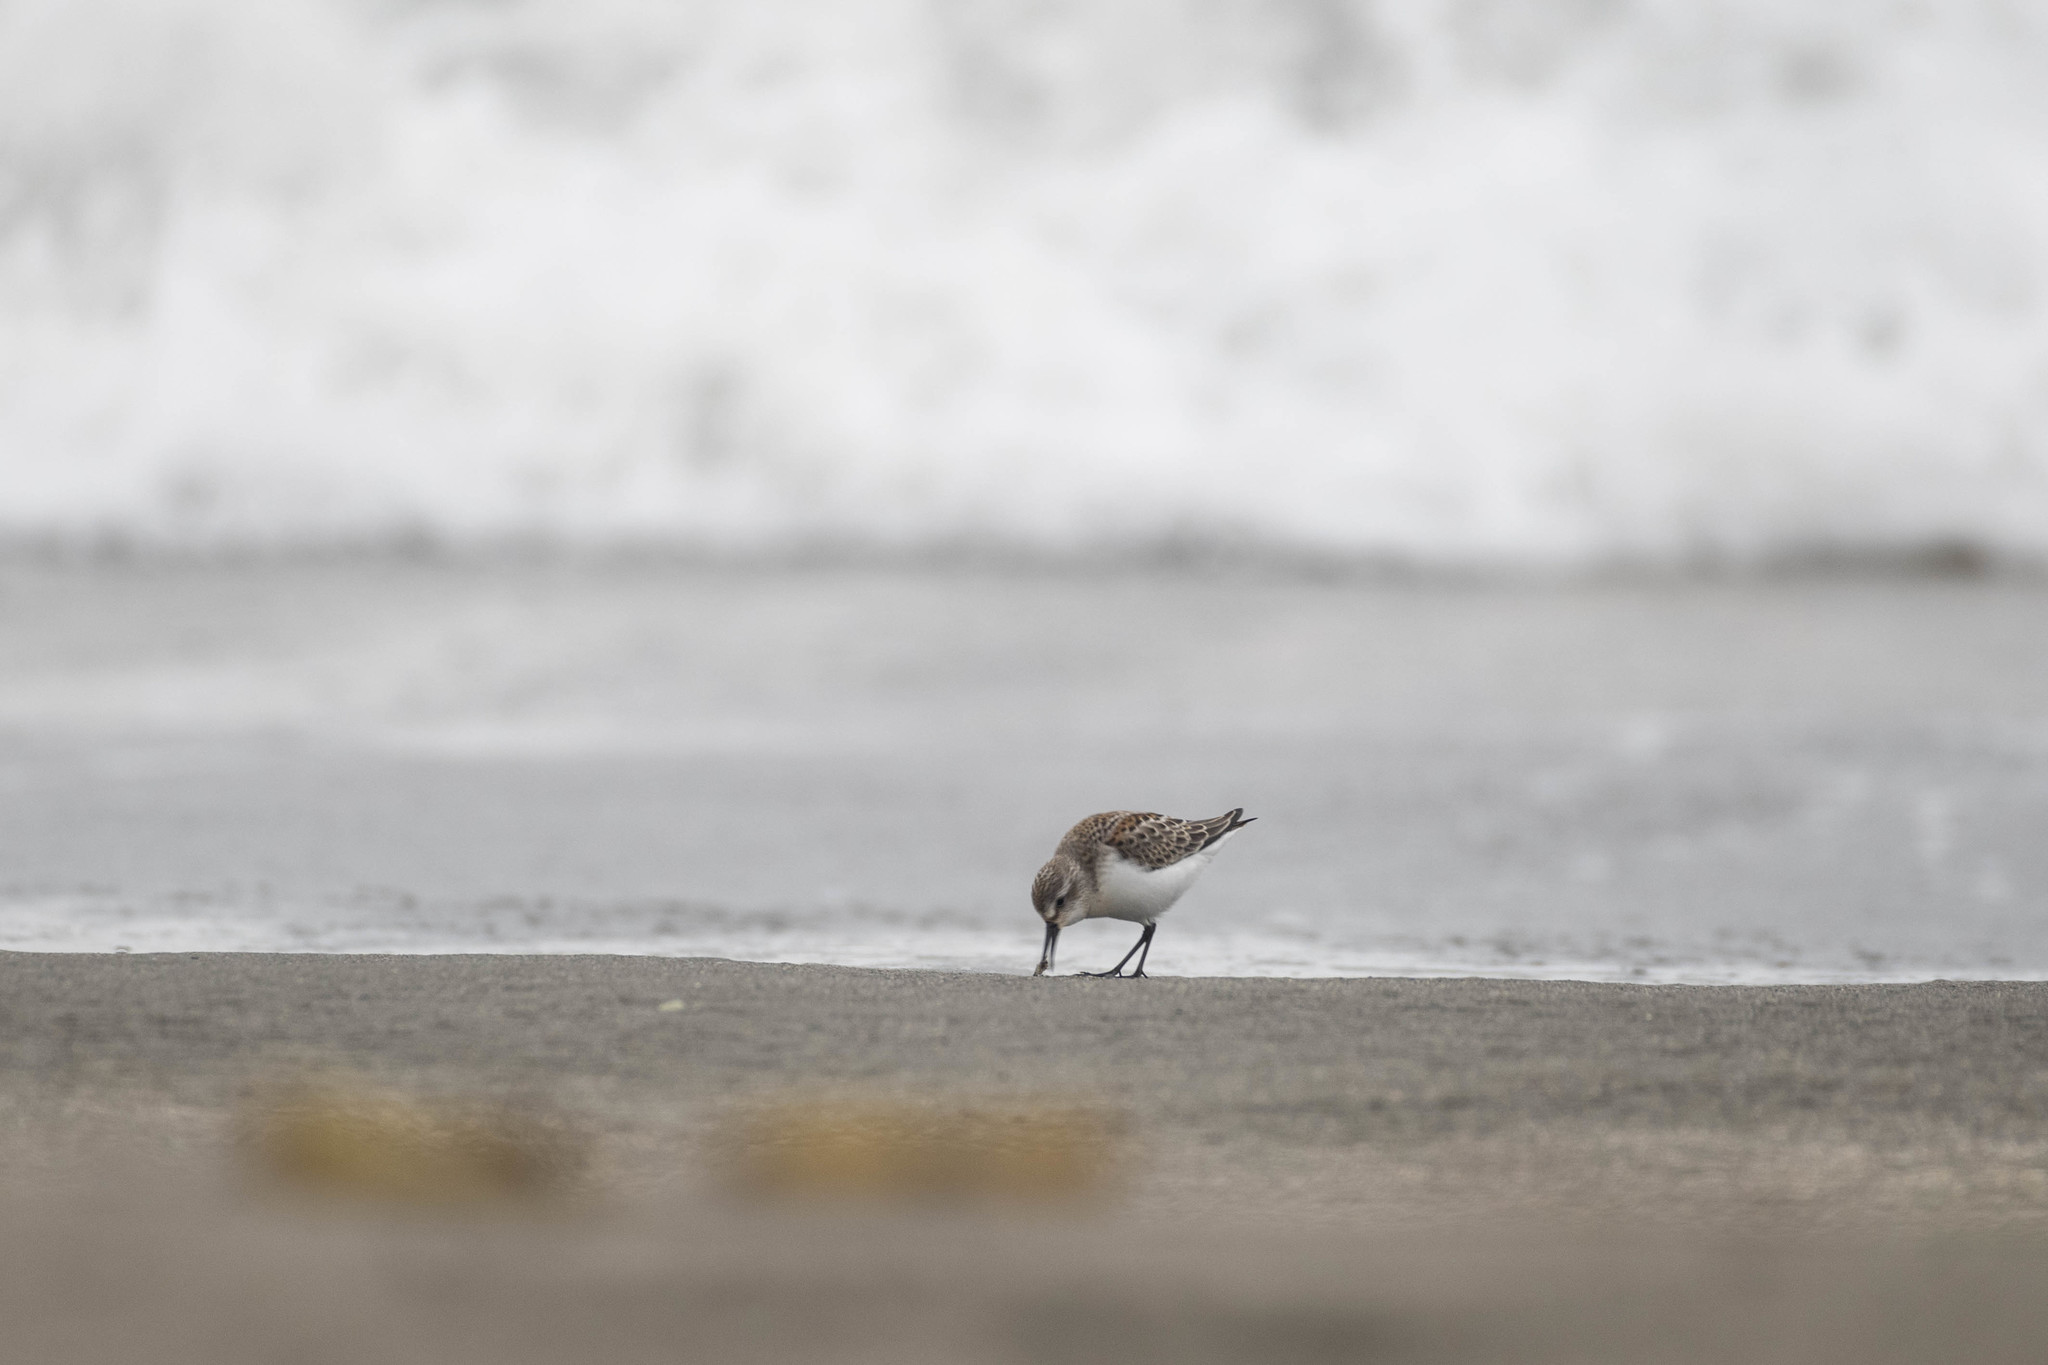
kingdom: Animalia
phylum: Chordata
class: Aves
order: Charadriiformes
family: Scolopacidae
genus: Calidris
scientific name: Calidris mauri
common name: Western sandpiper
